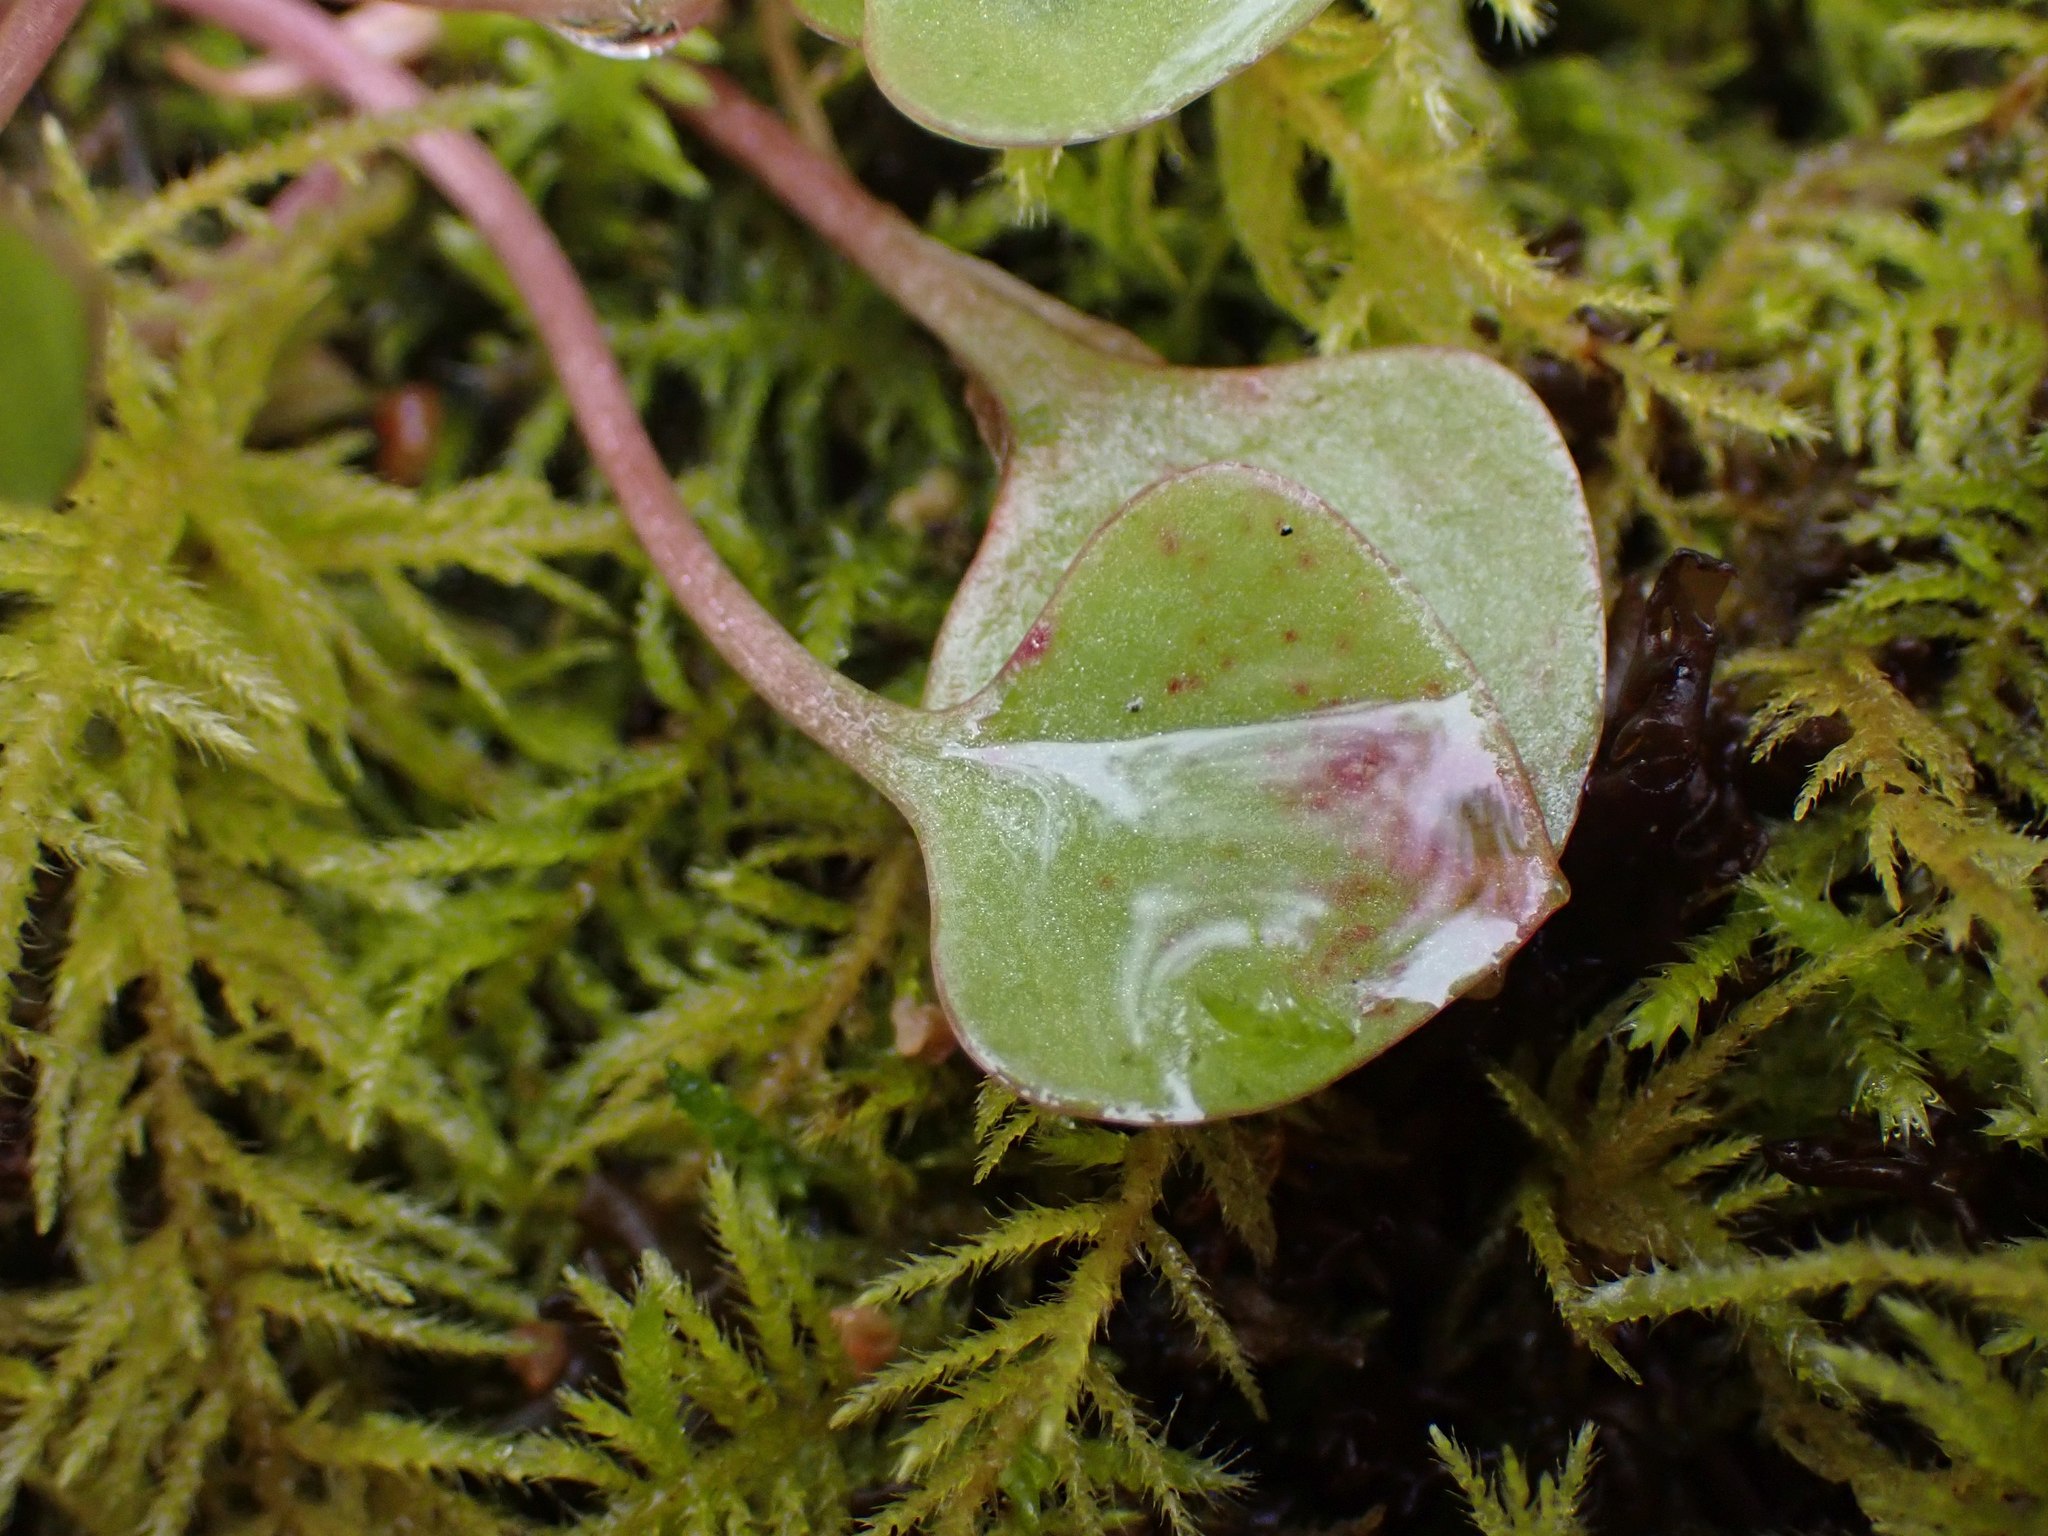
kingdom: Plantae
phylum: Tracheophyta
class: Magnoliopsida
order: Caryophyllales
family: Montiaceae
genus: Claytonia
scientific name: Claytonia rubra
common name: Erubescent miner's-lettuce
